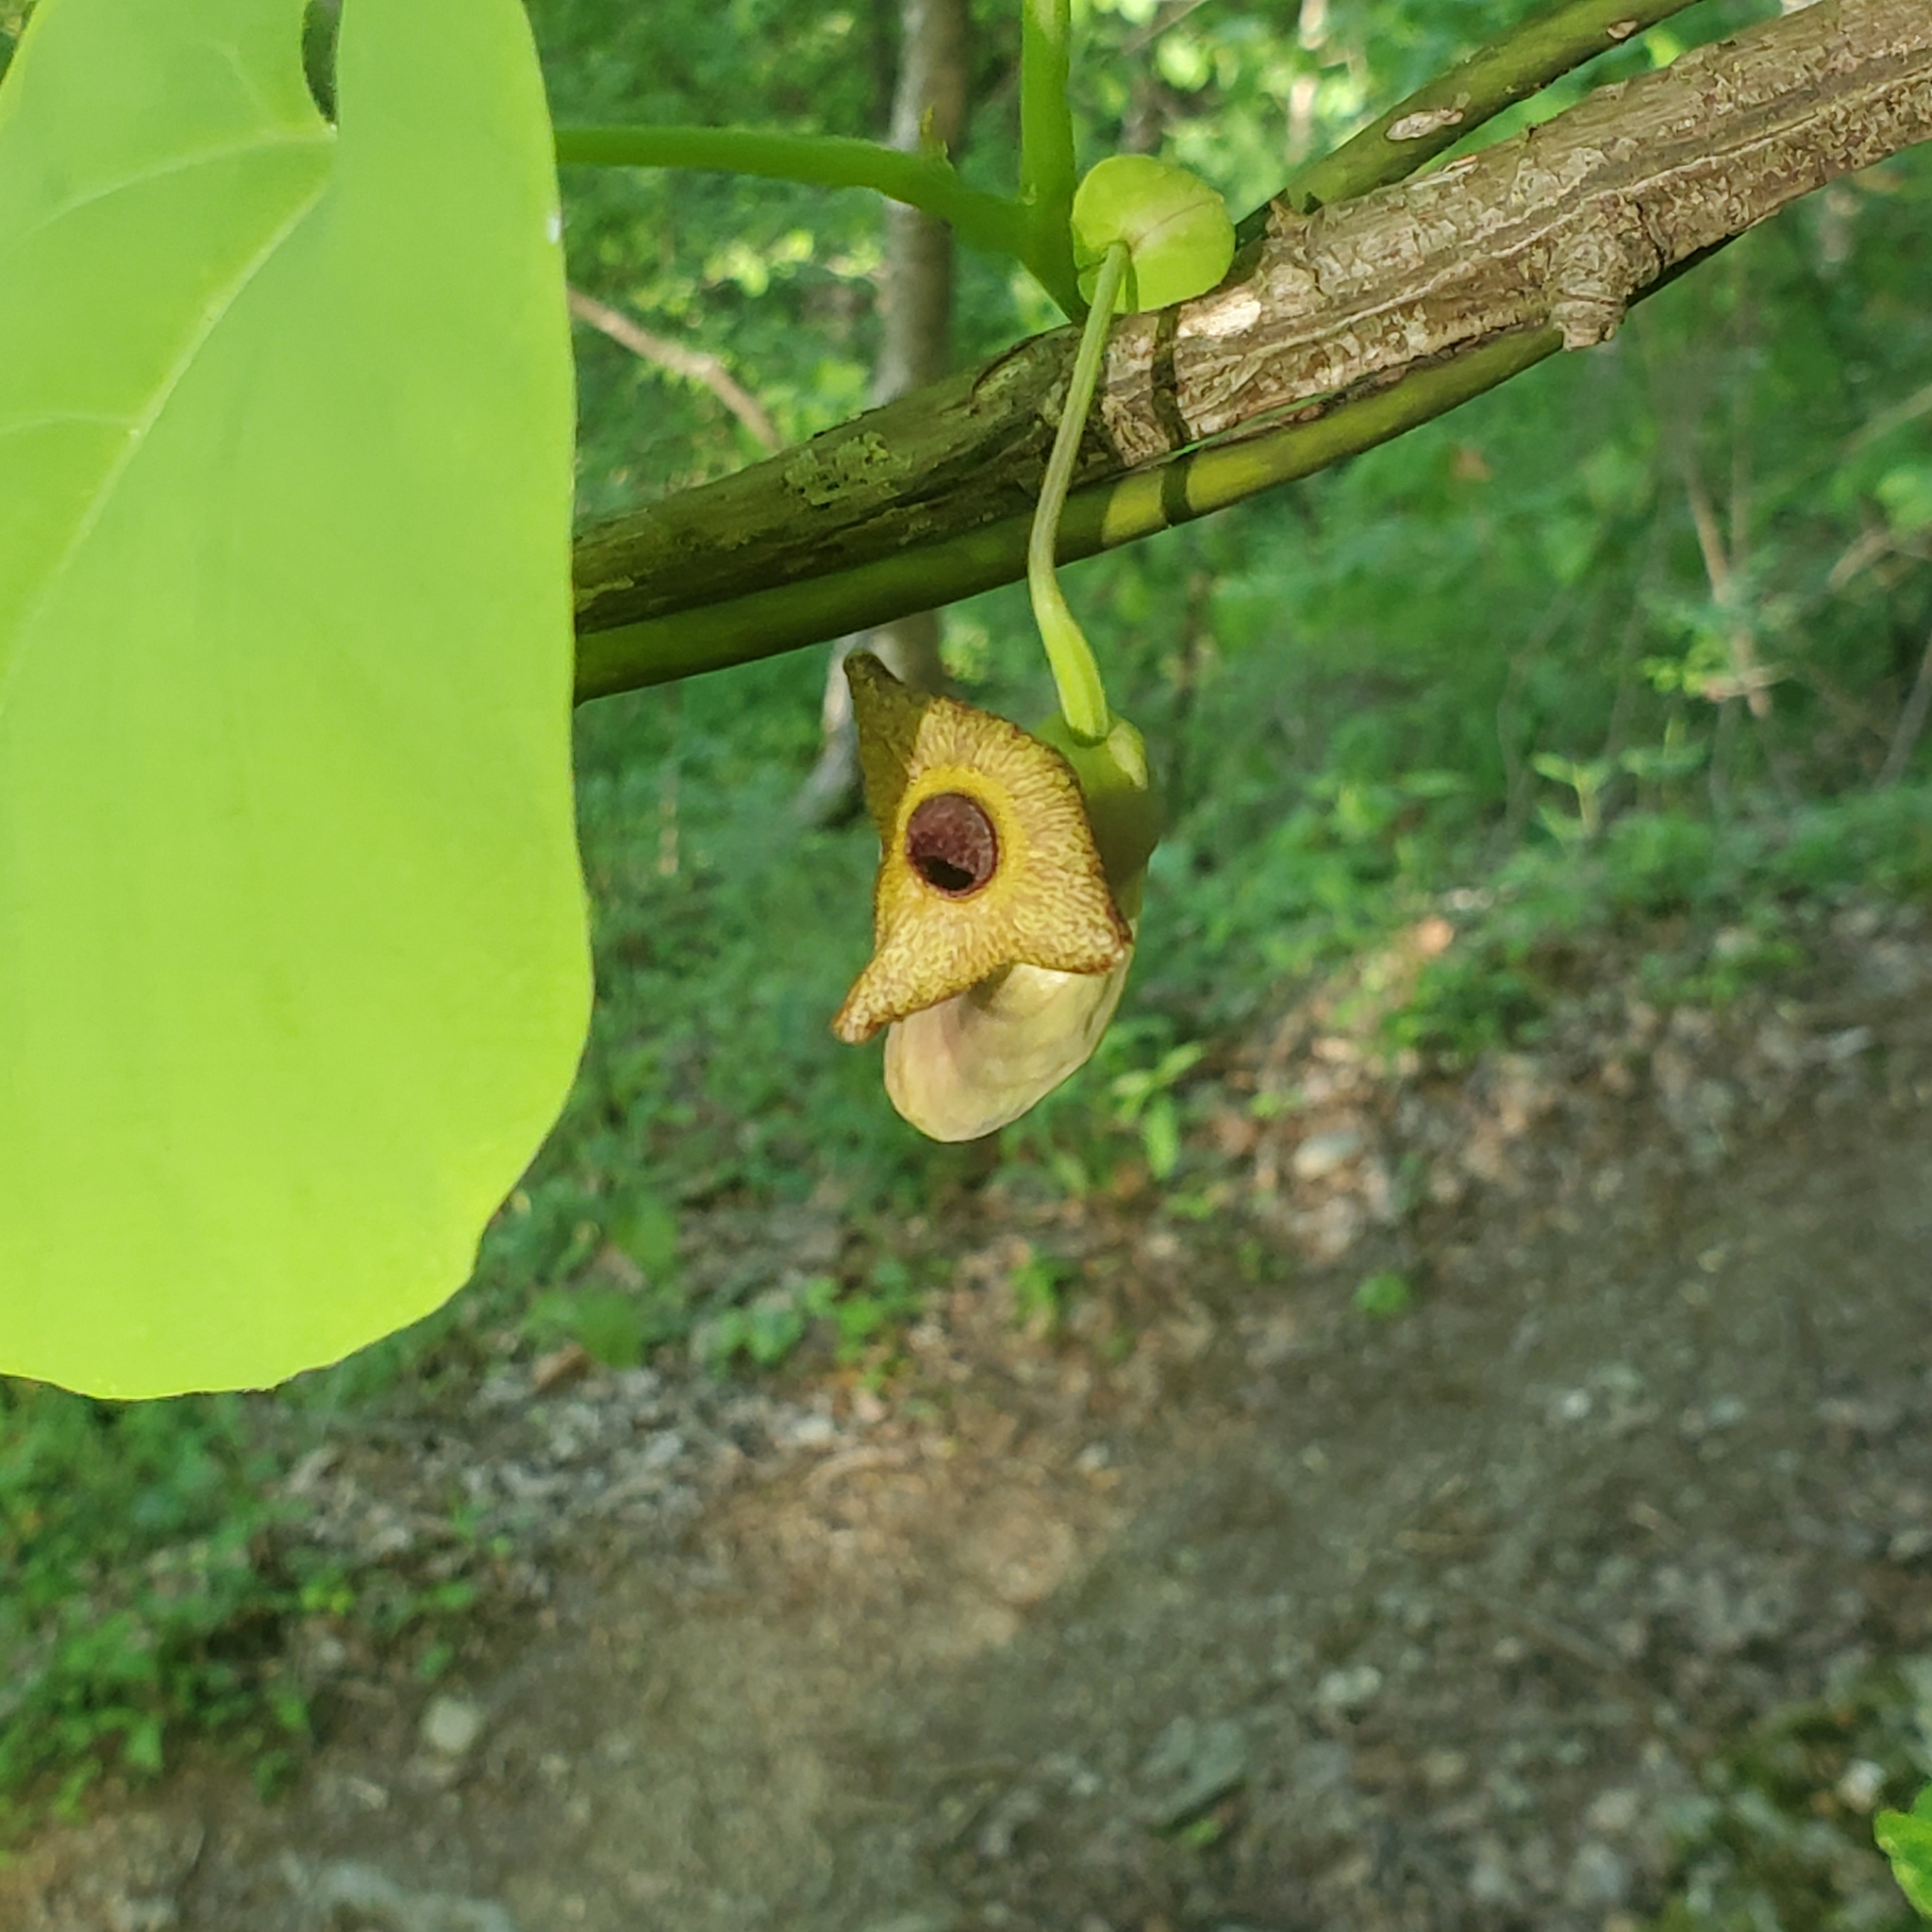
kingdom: Plantae
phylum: Tracheophyta
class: Magnoliopsida
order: Piperales
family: Aristolochiaceae
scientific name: Aristolochiaceae
